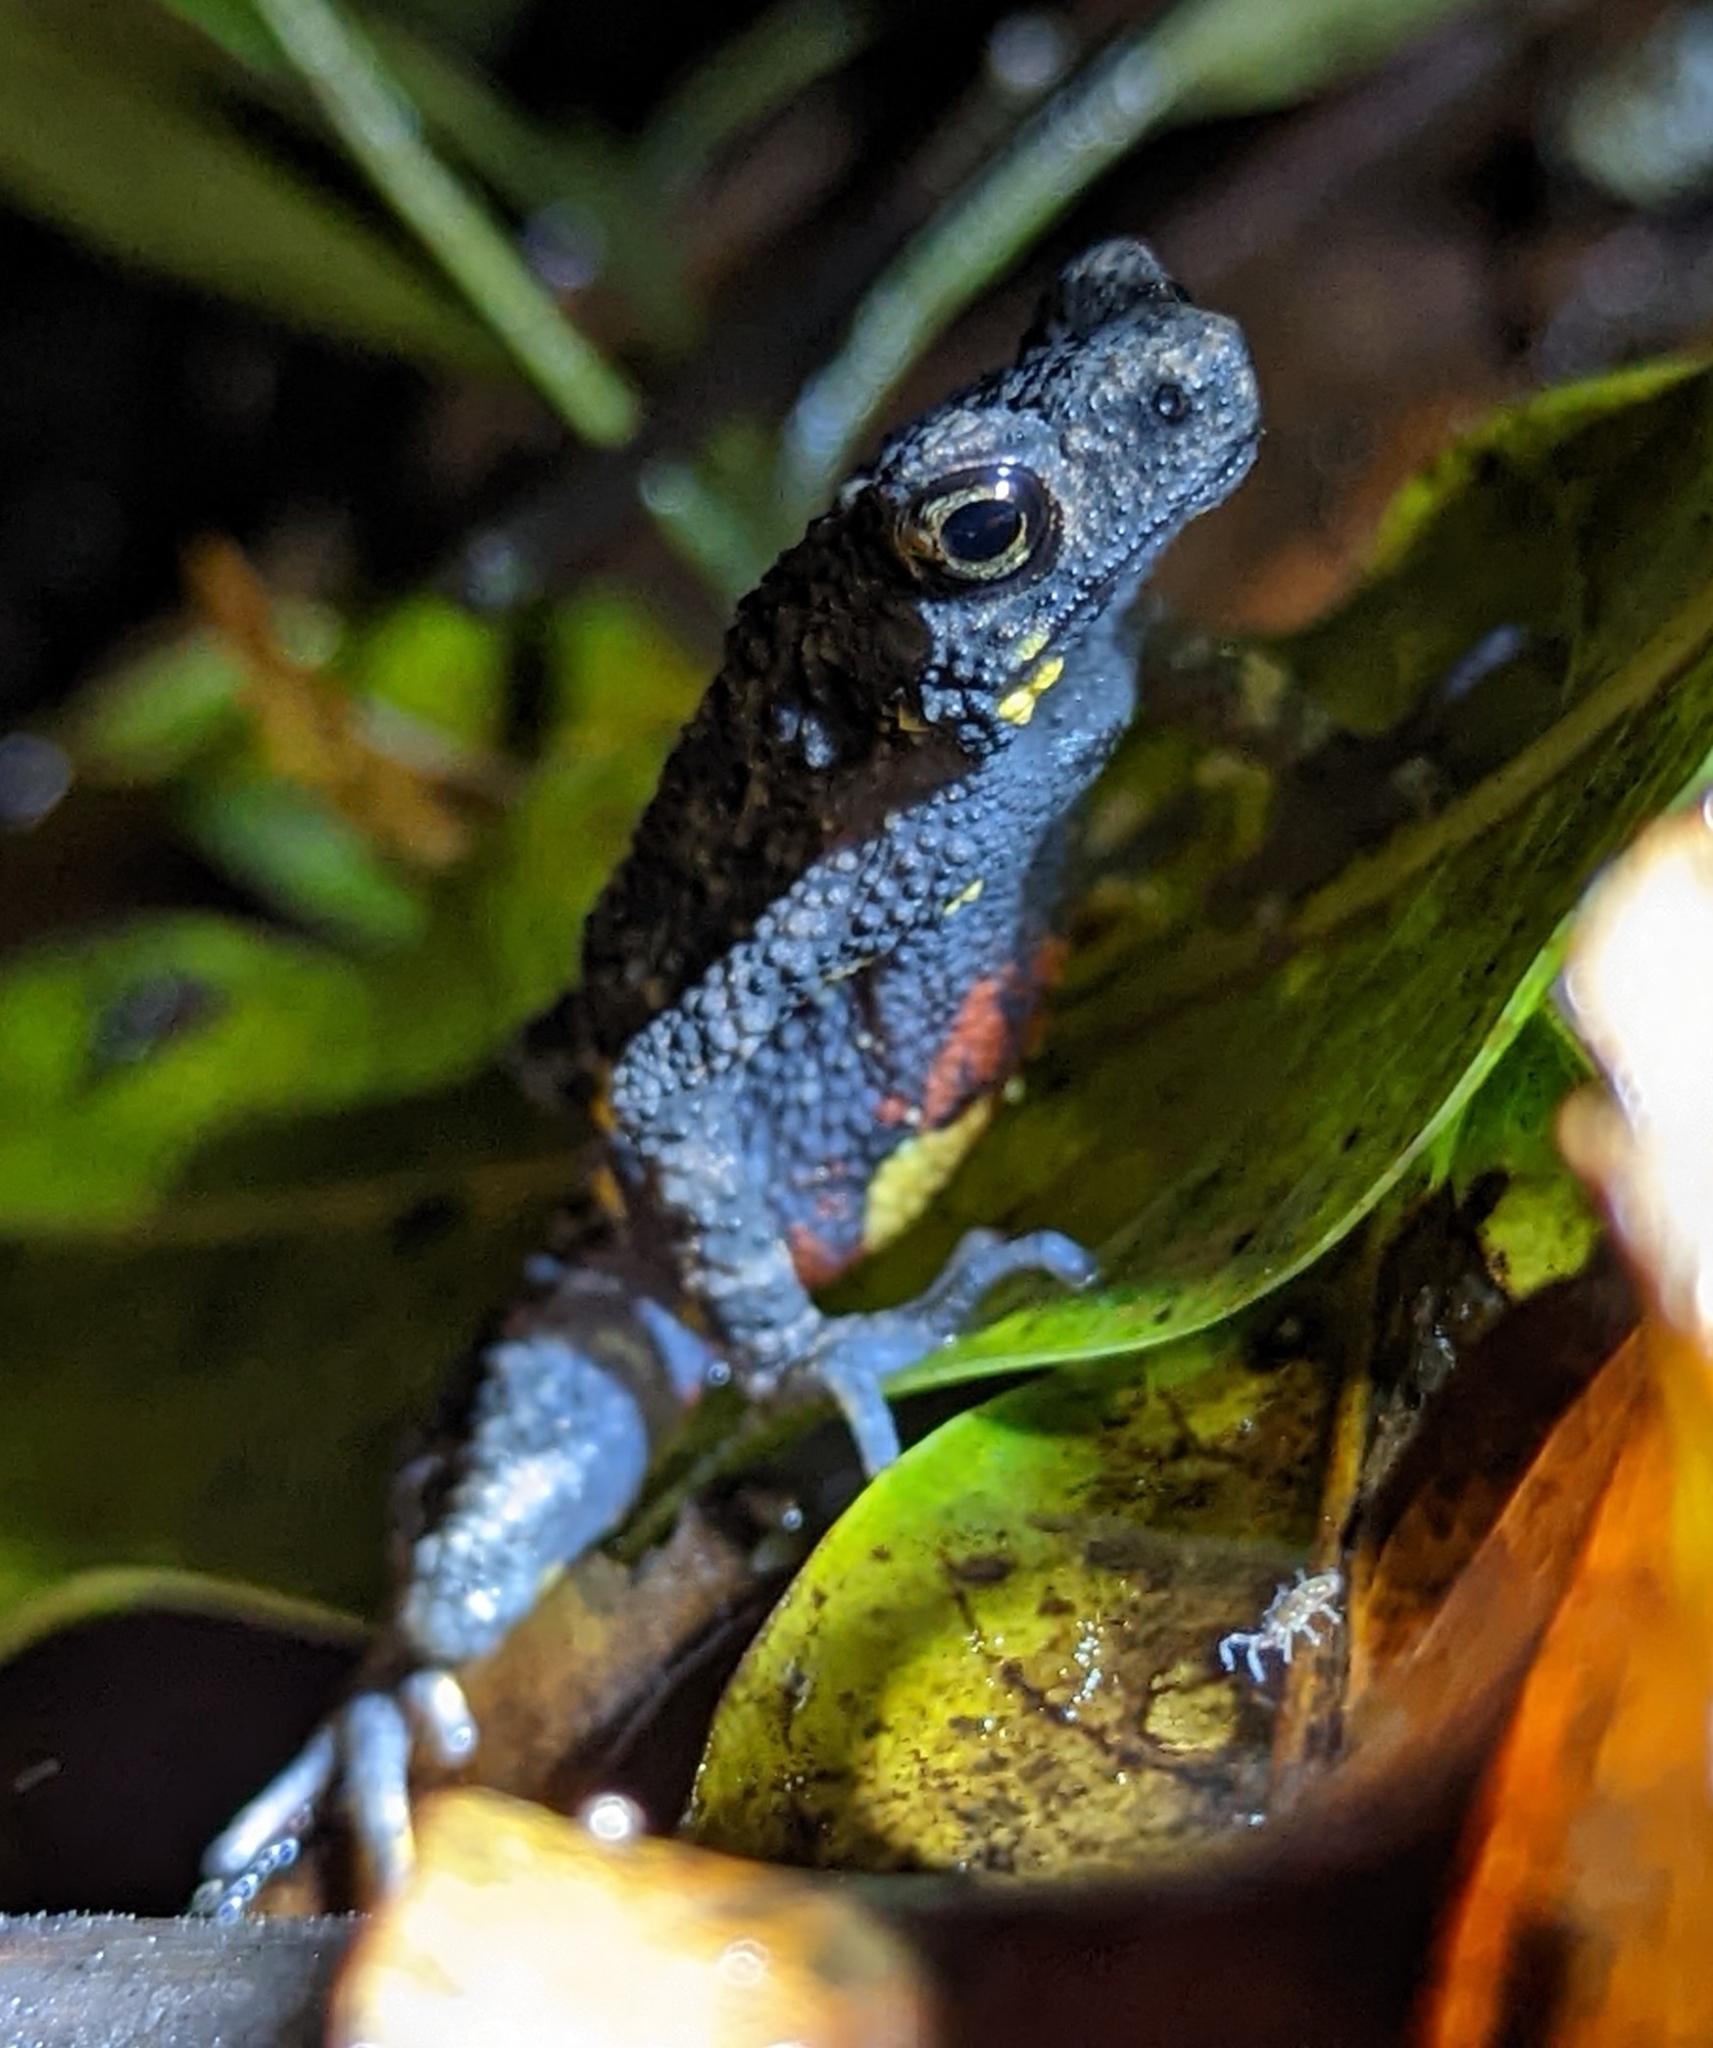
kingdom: Animalia
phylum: Chordata
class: Amphibia
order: Anura
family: Bufonidae
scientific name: Bufonidae
